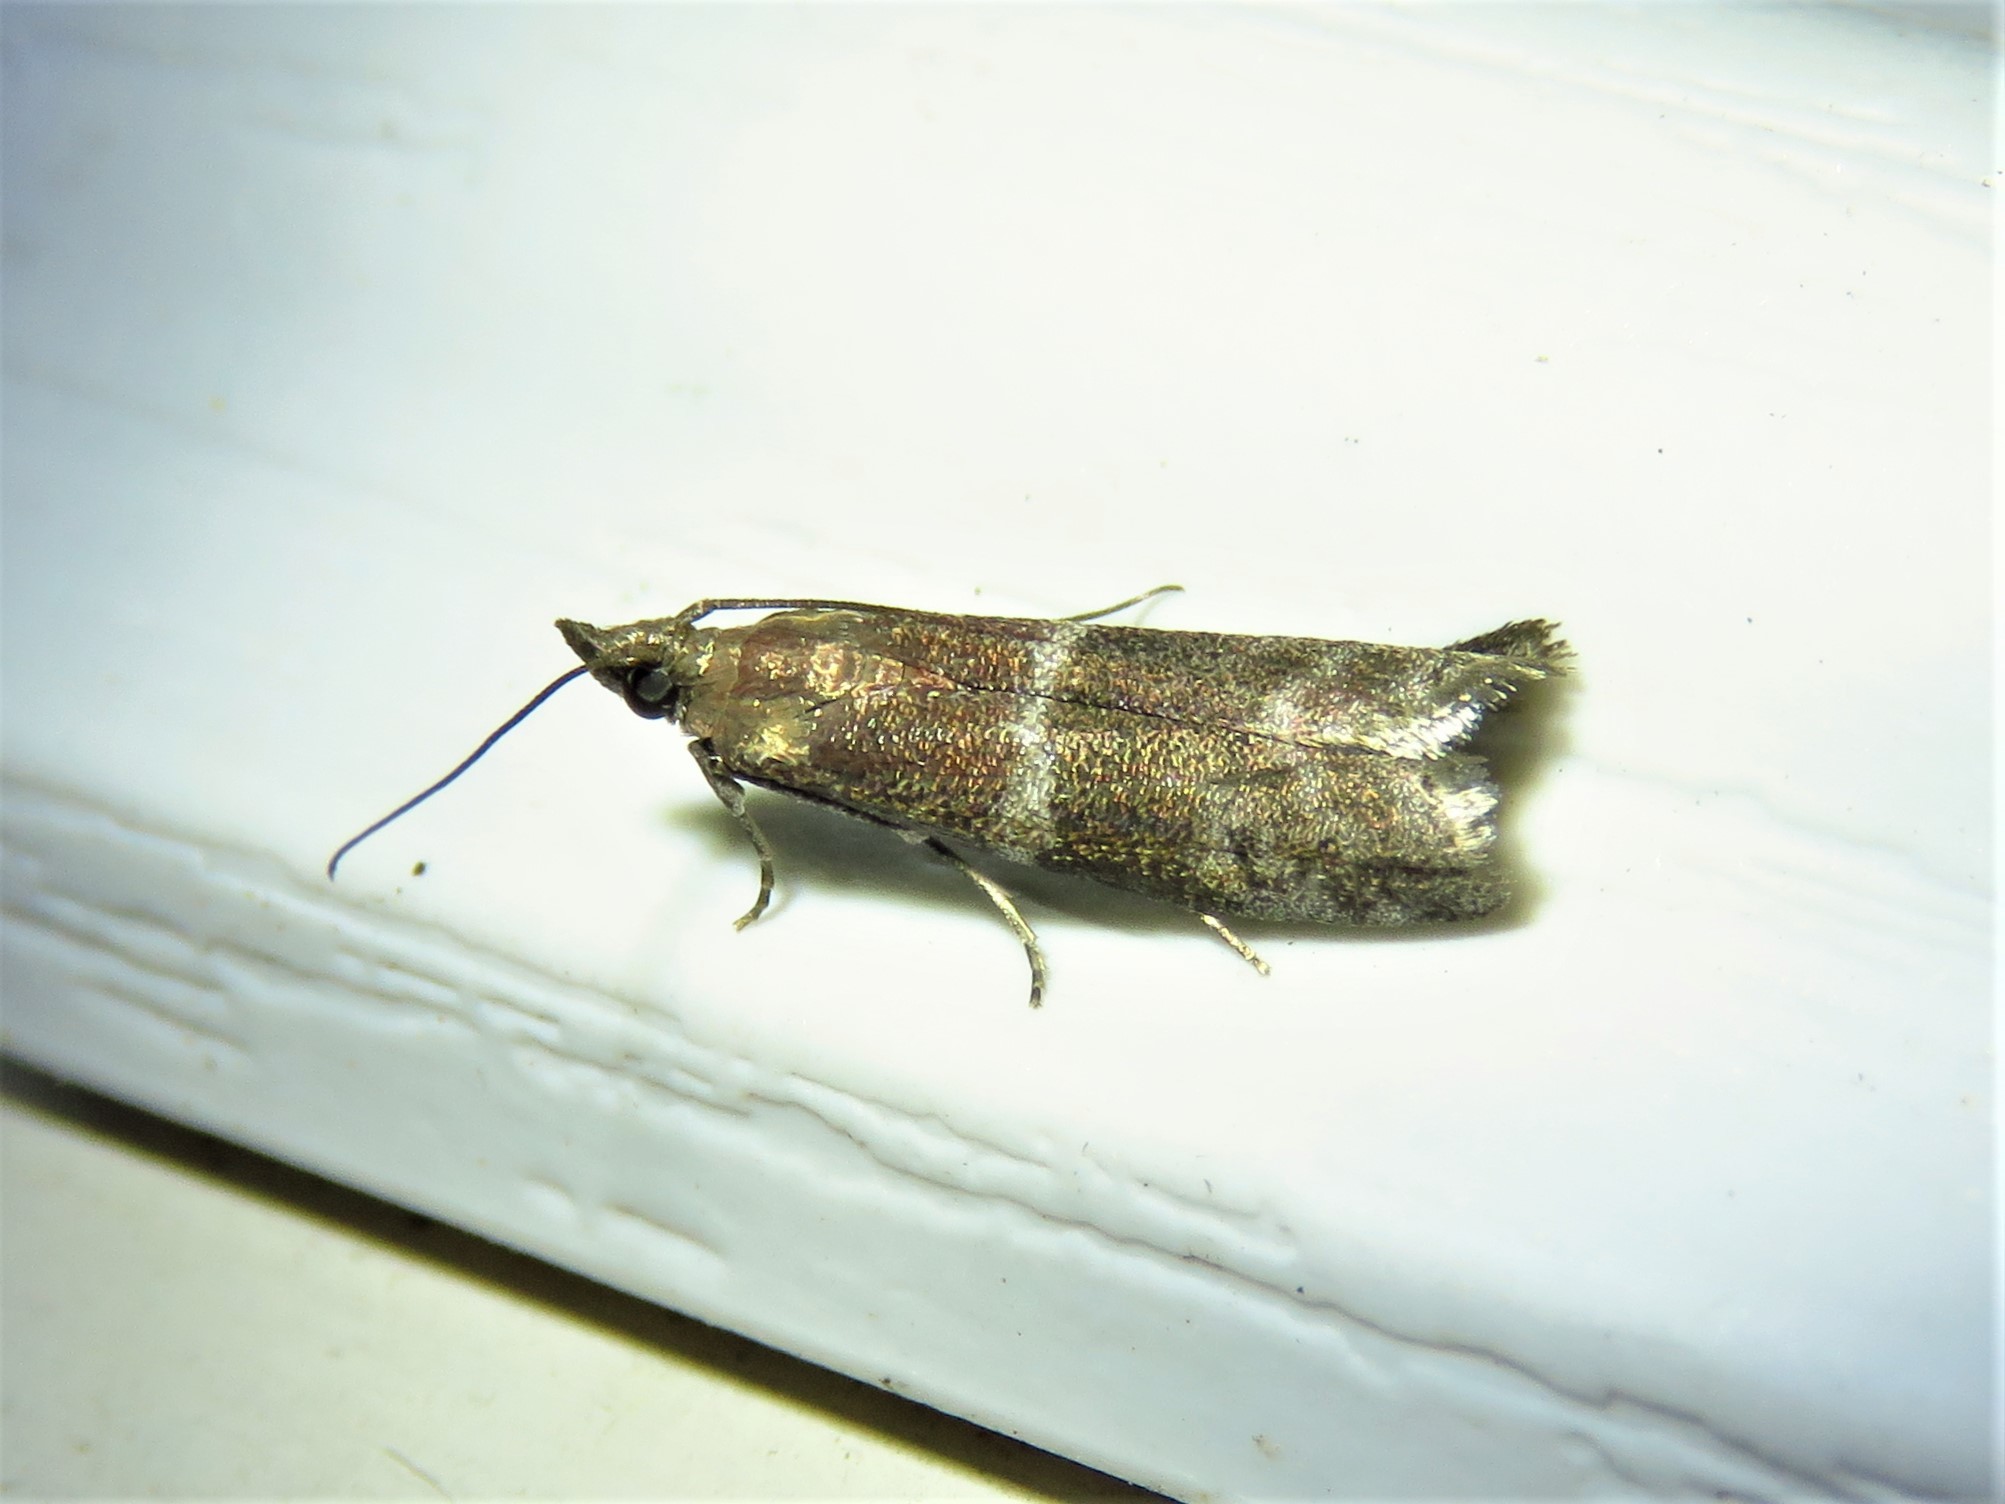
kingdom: Animalia
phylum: Arthropoda
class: Insecta
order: Lepidoptera
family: Pyralidae
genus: Moodna
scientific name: Moodna ostrinella
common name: Darker moodna moth
